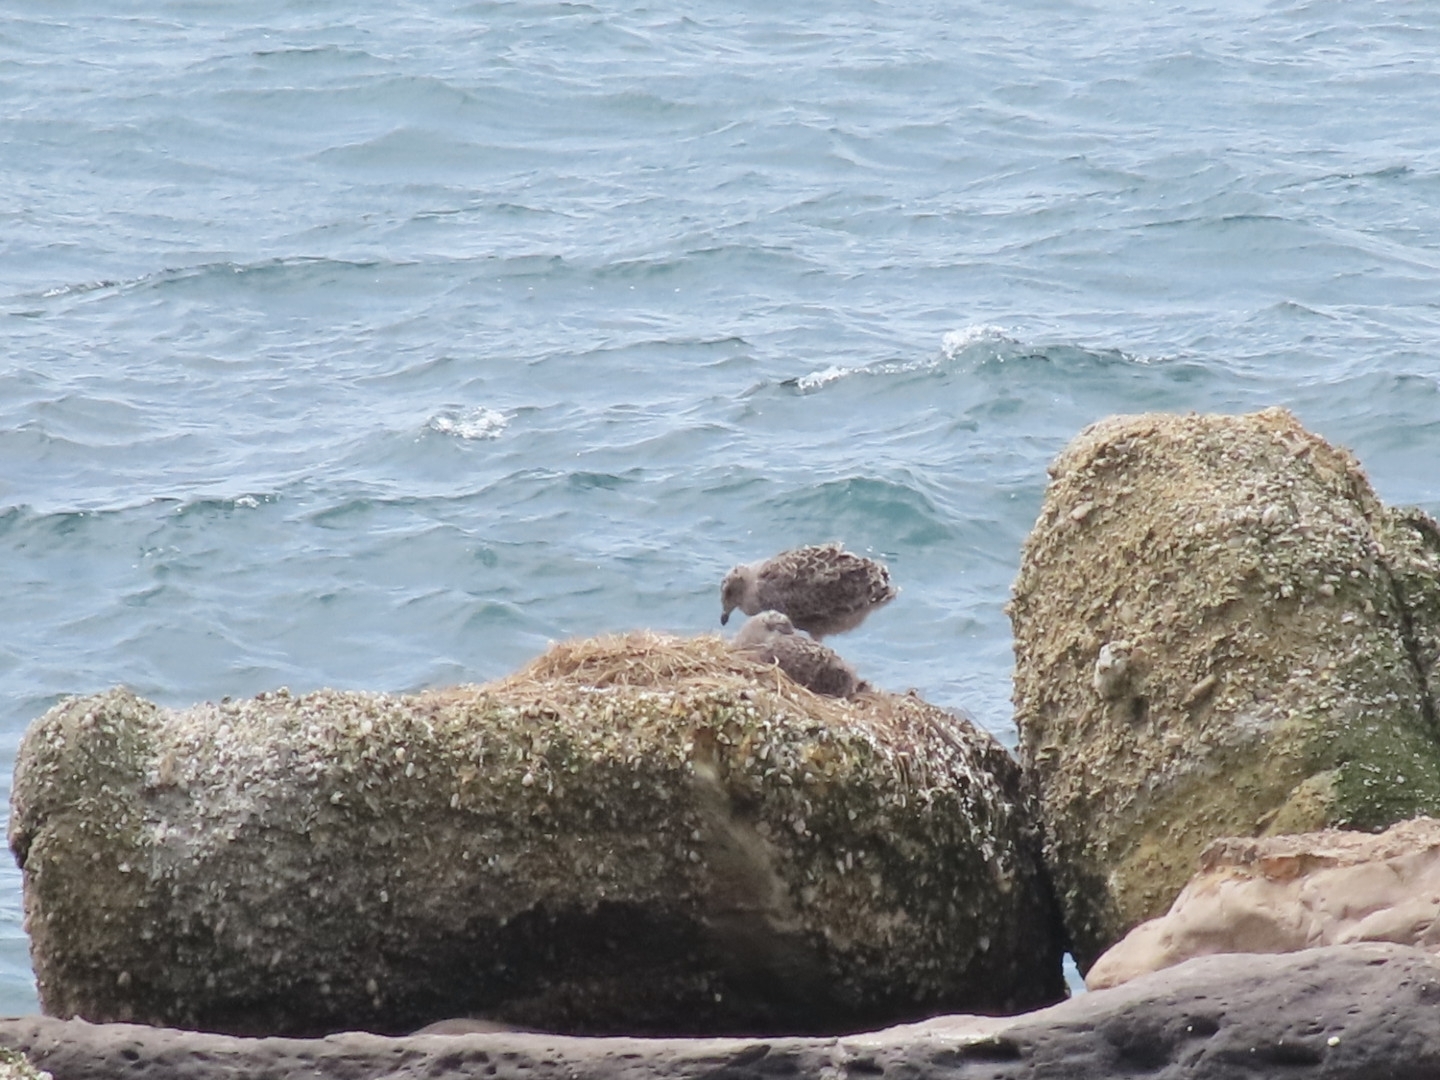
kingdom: Animalia
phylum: Chordata
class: Aves
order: Charadriiformes
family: Laridae
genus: Larus
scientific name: Larus dominicanus
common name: Kelp gull
